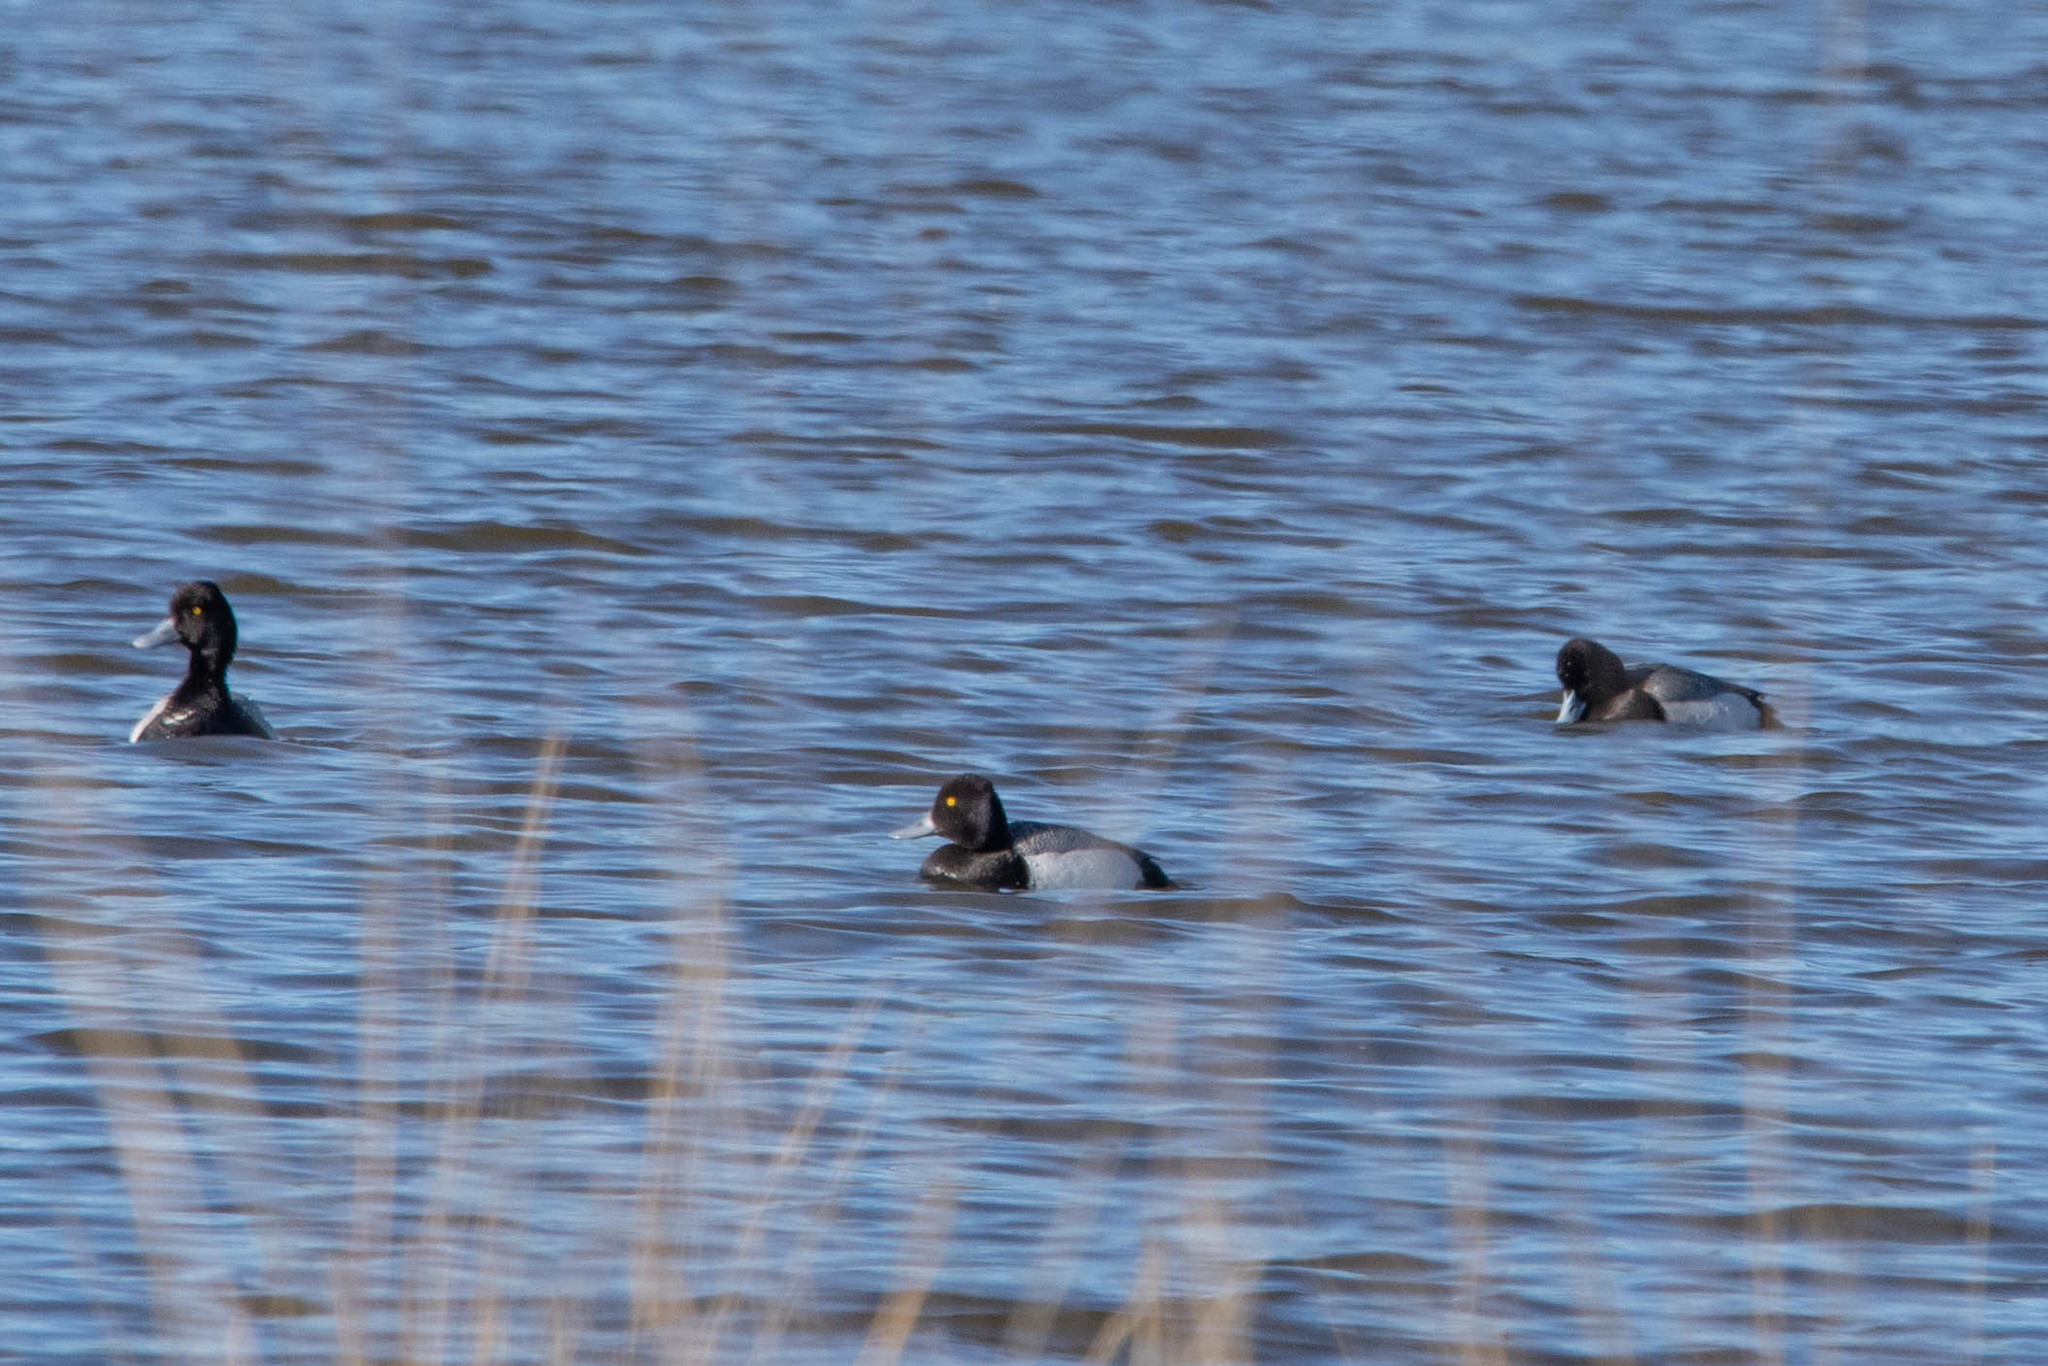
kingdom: Animalia
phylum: Chordata
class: Aves
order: Anseriformes
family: Anatidae
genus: Aythya
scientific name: Aythya affinis
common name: Lesser scaup
